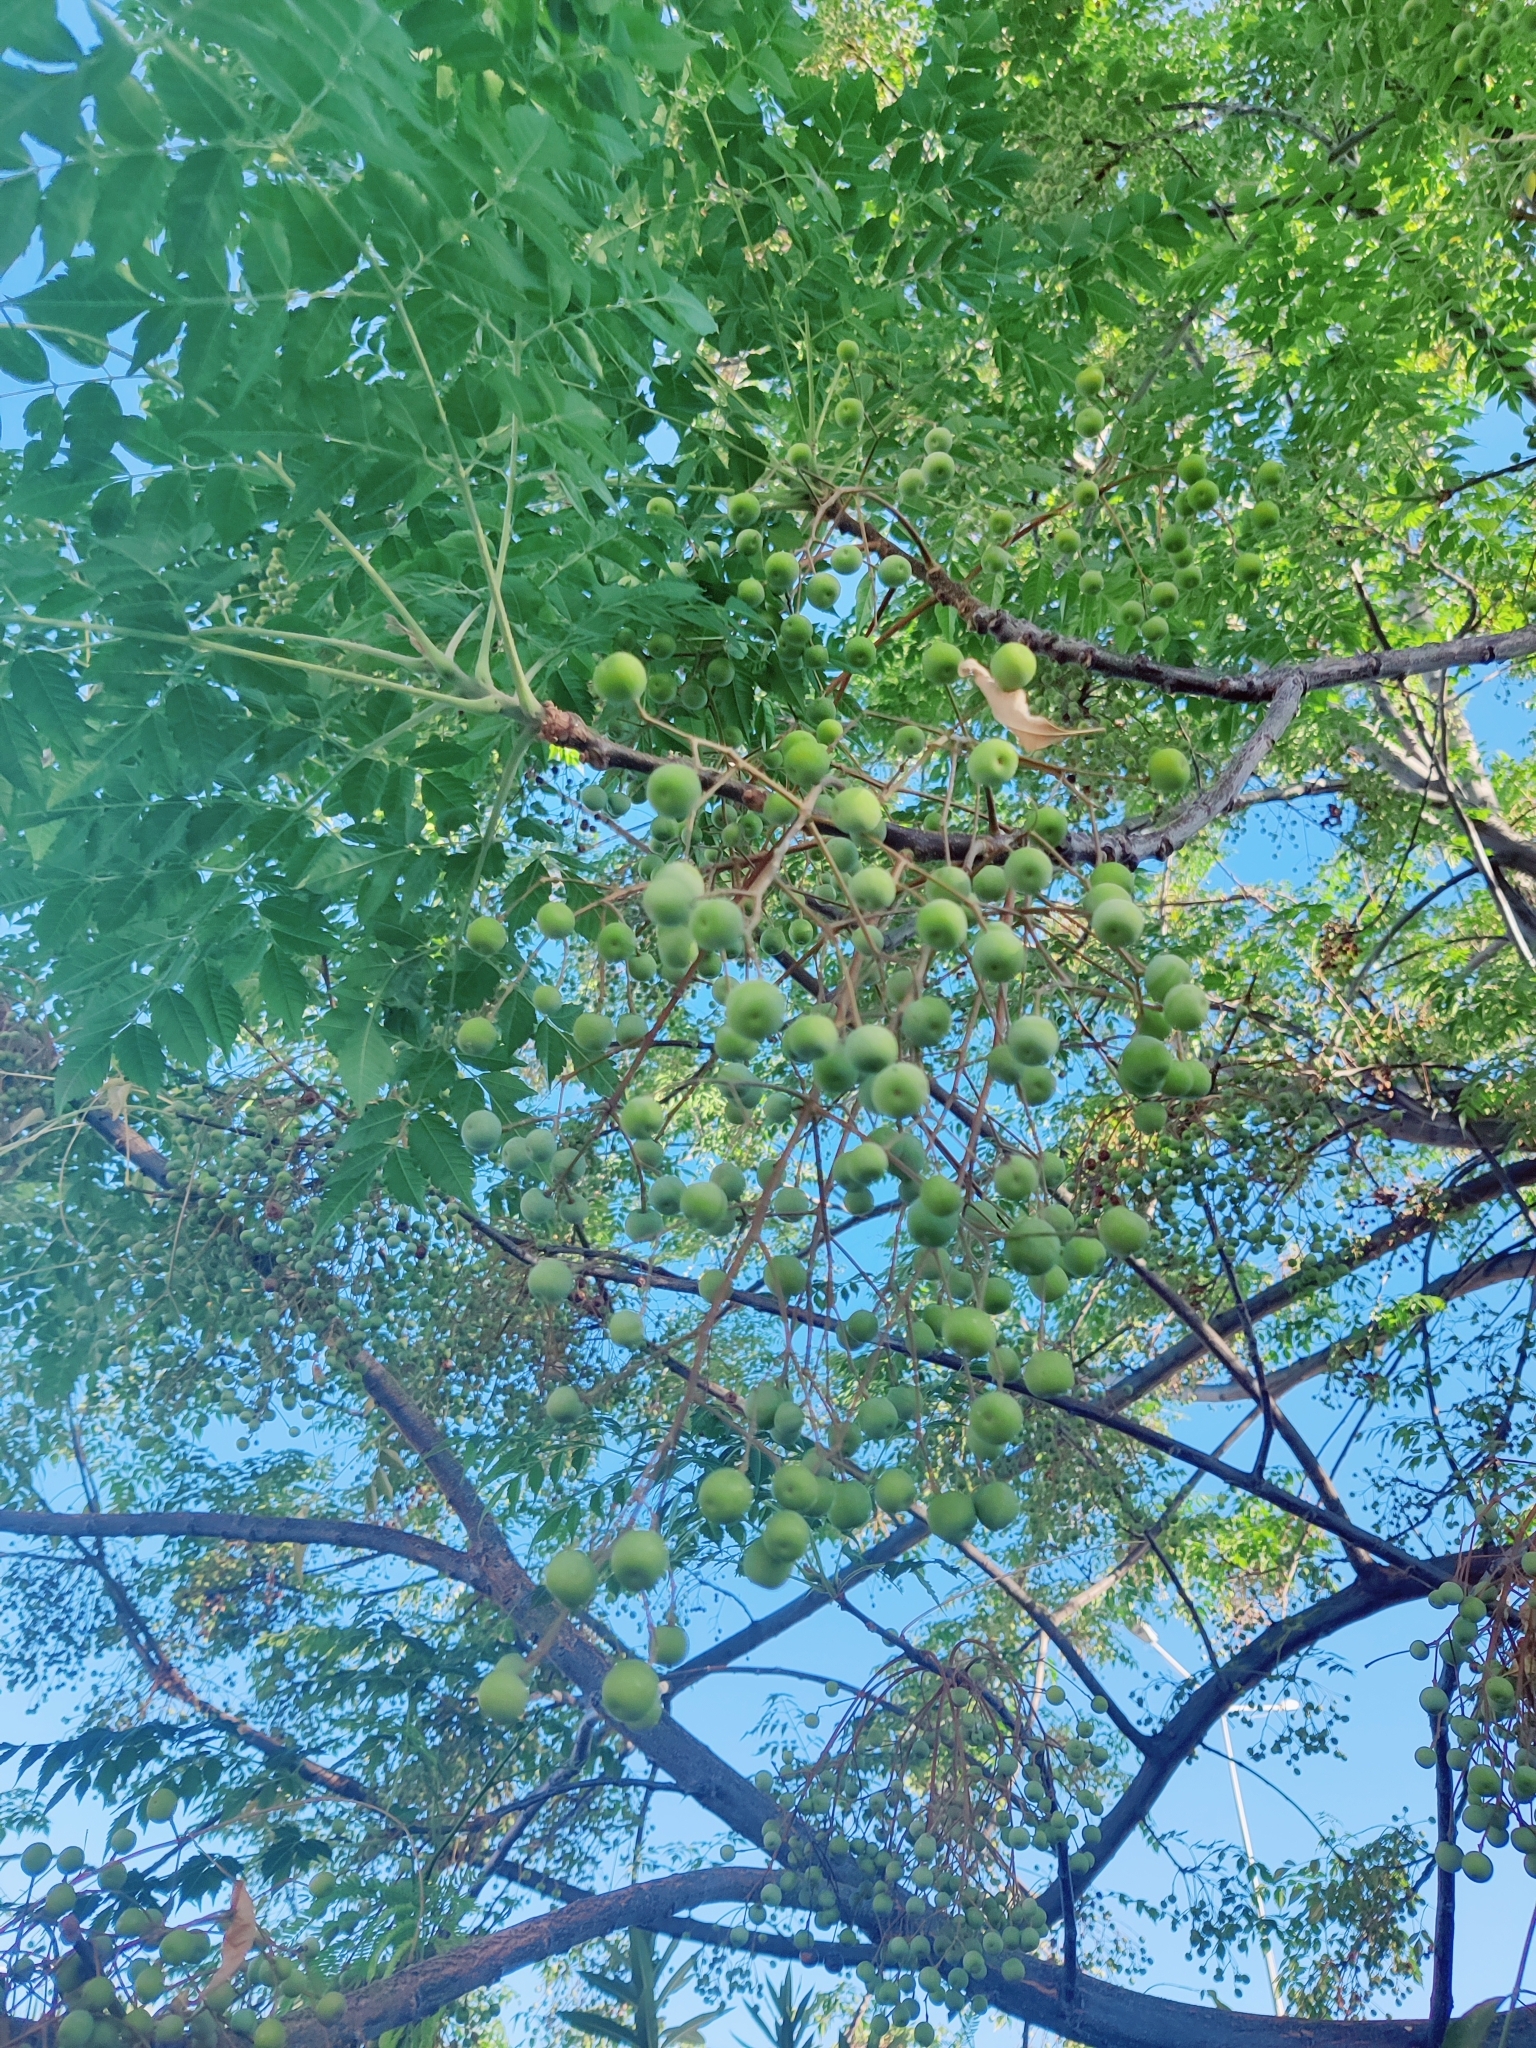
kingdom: Plantae
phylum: Tracheophyta
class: Magnoliopsida
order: Sapindales
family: Meliaceae
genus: Melia
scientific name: Melia azedarach
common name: Chinaberrytree
